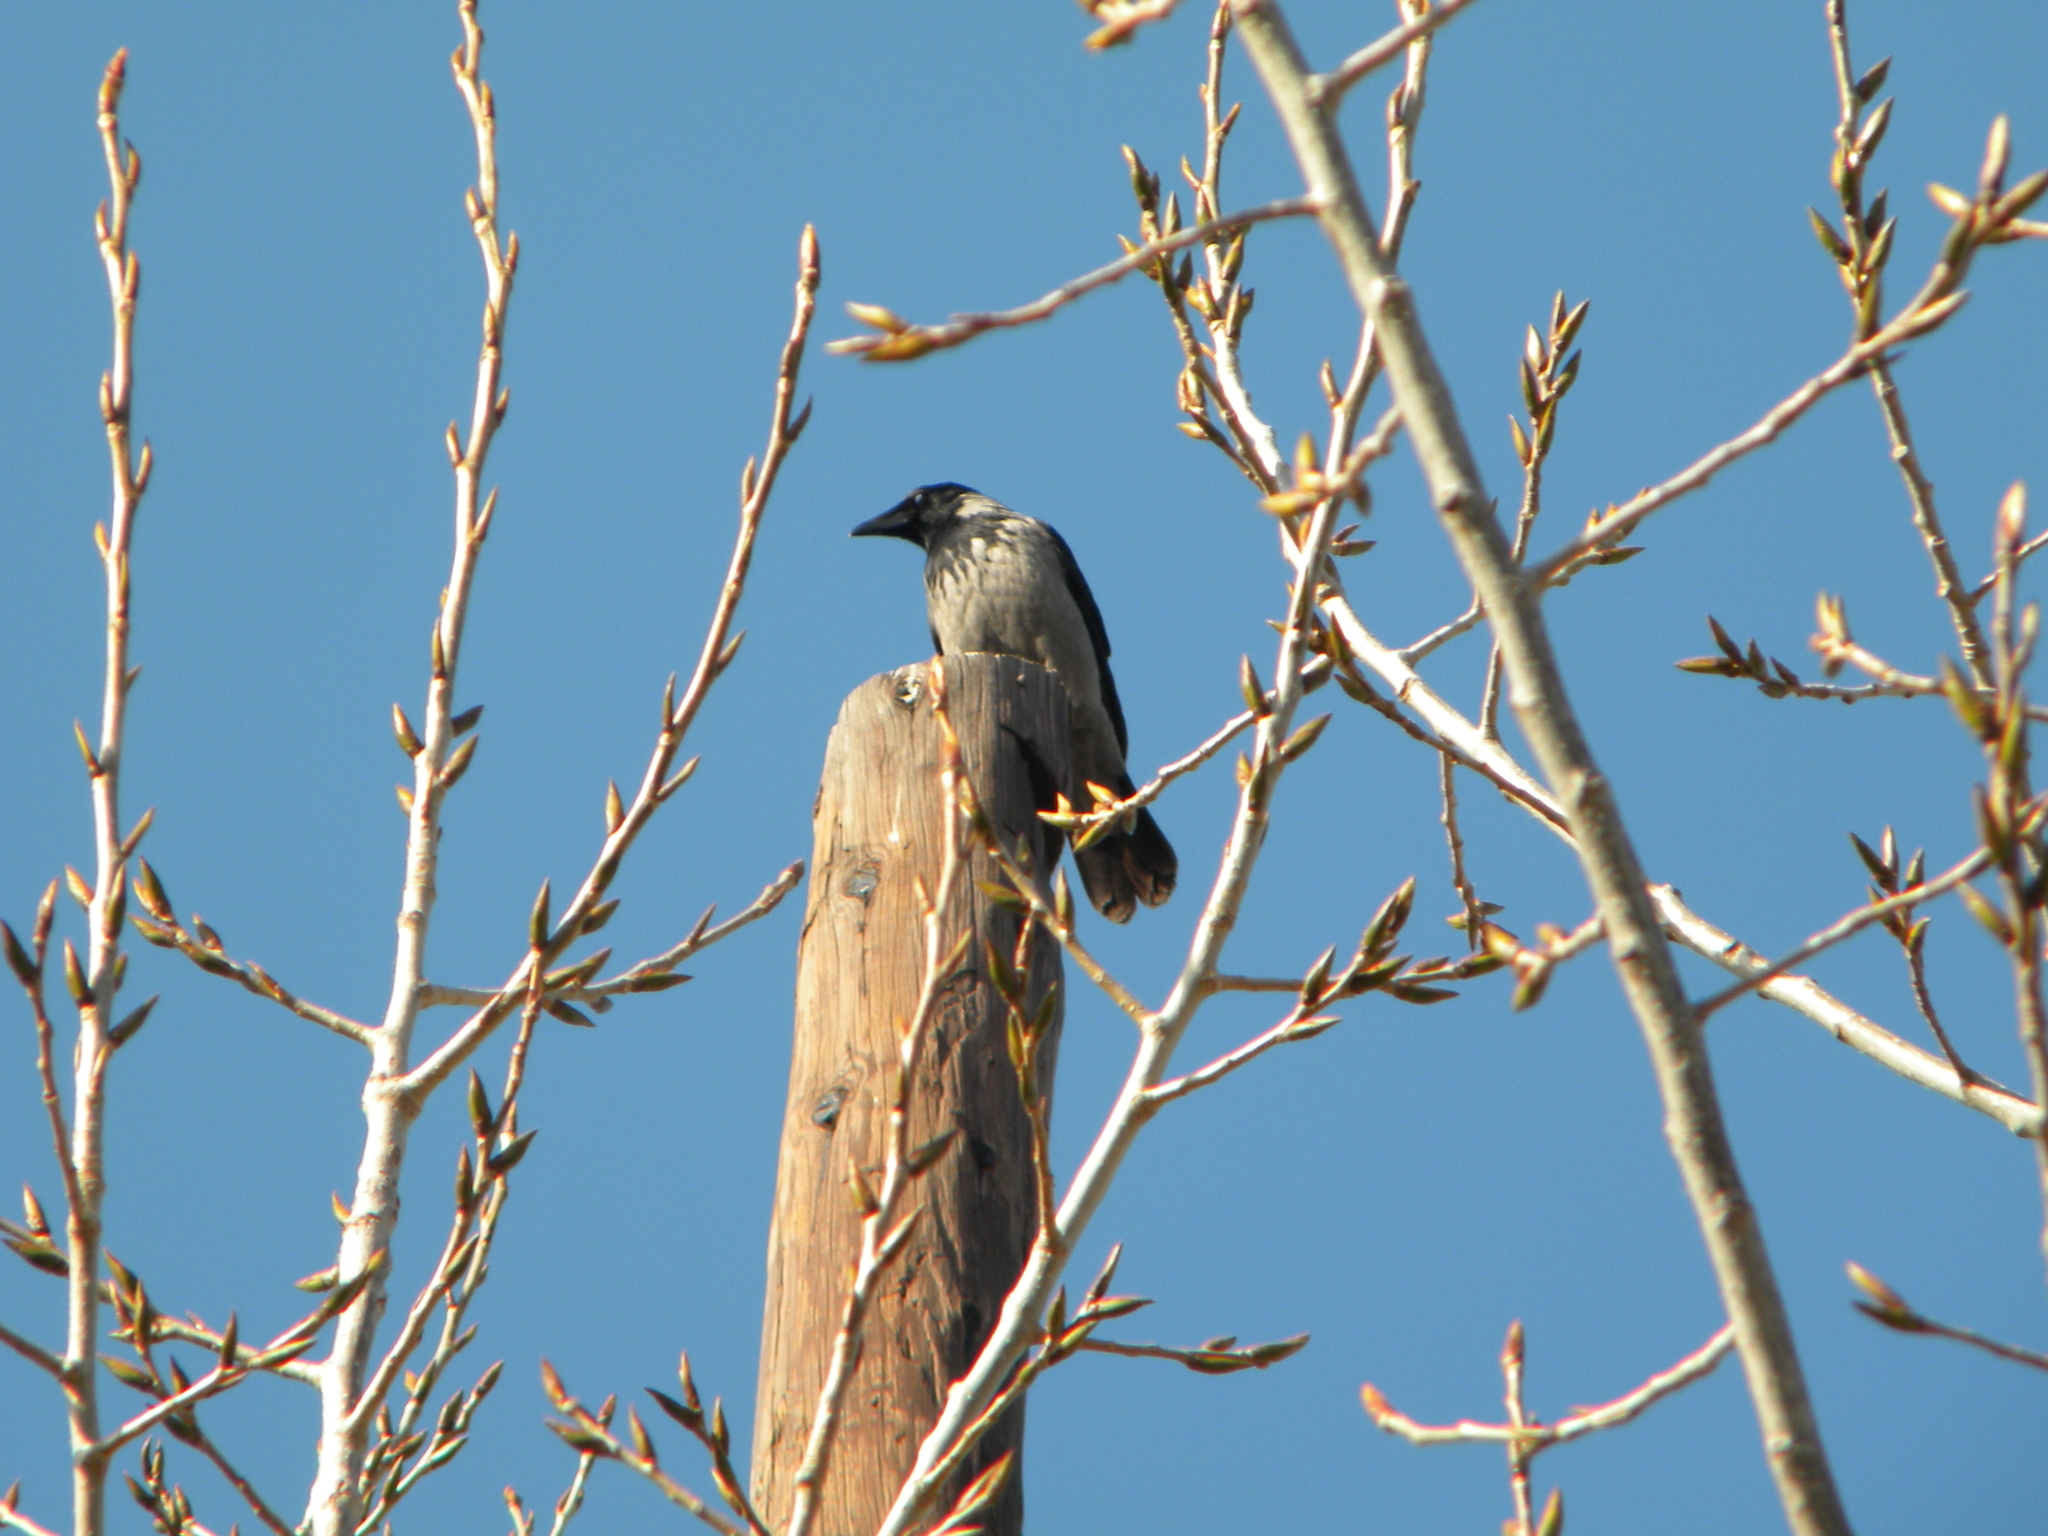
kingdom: Animalia
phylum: Chordata
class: Aves
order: Passeriformes
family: Corvidae
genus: Corvus
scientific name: Corvus cornix
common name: Hooded crow
